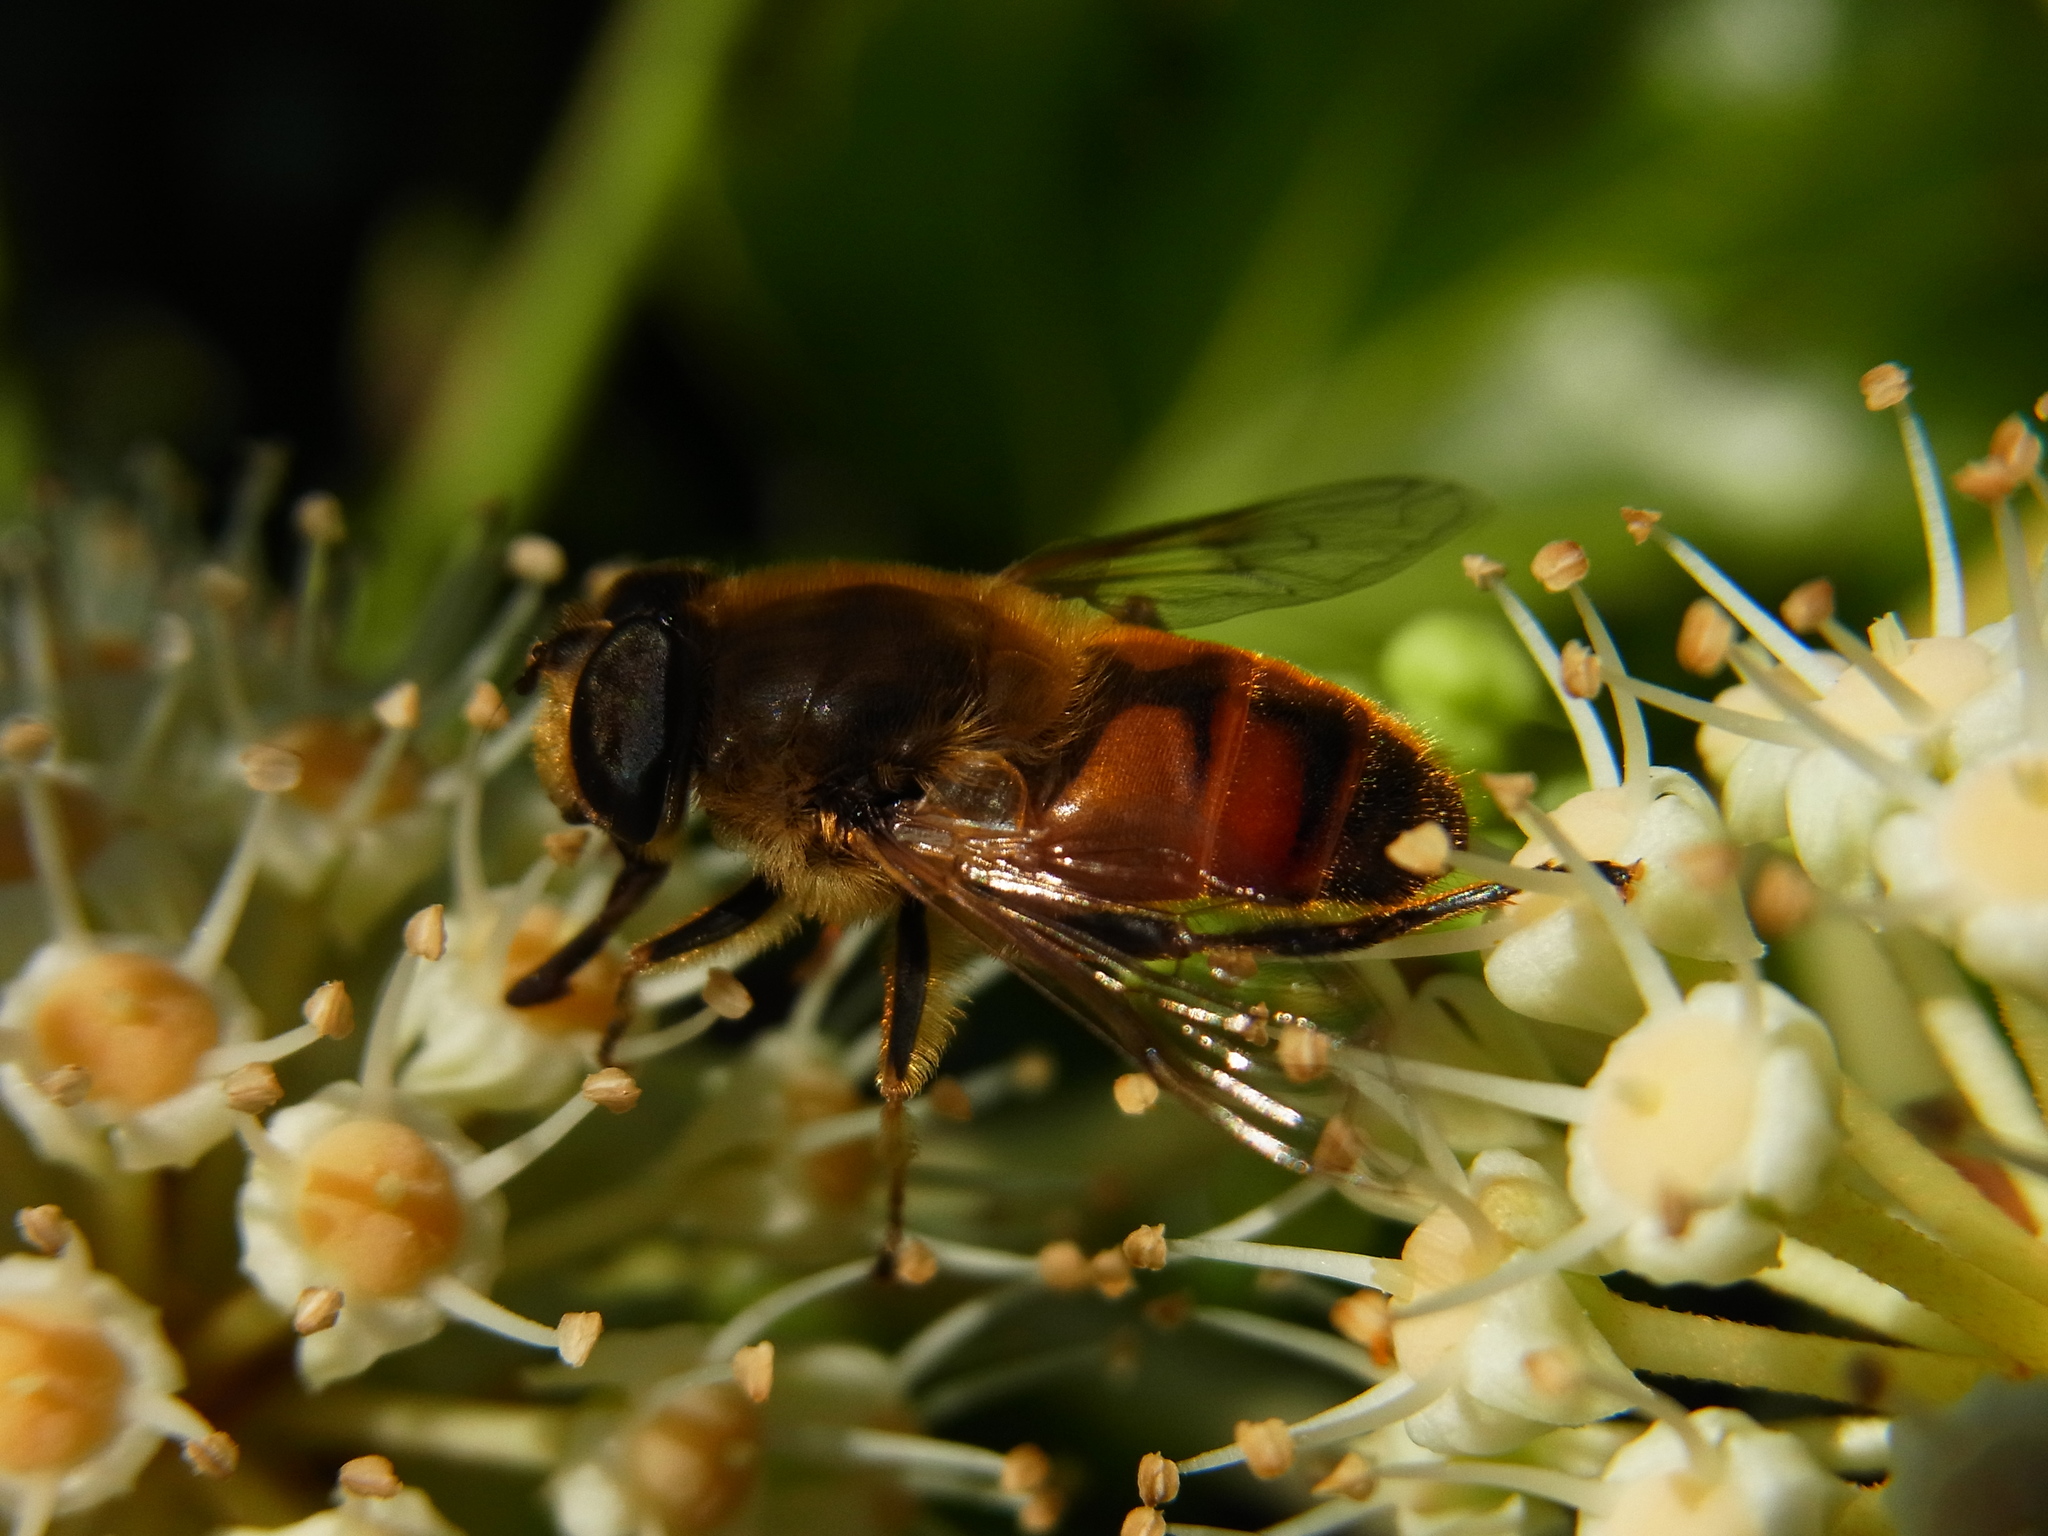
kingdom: Animalia
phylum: Arthropoda
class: Insecta
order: Diptera
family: Syrphidae
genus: Eristalis
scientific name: Eristalis tenax
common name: Drone fly
